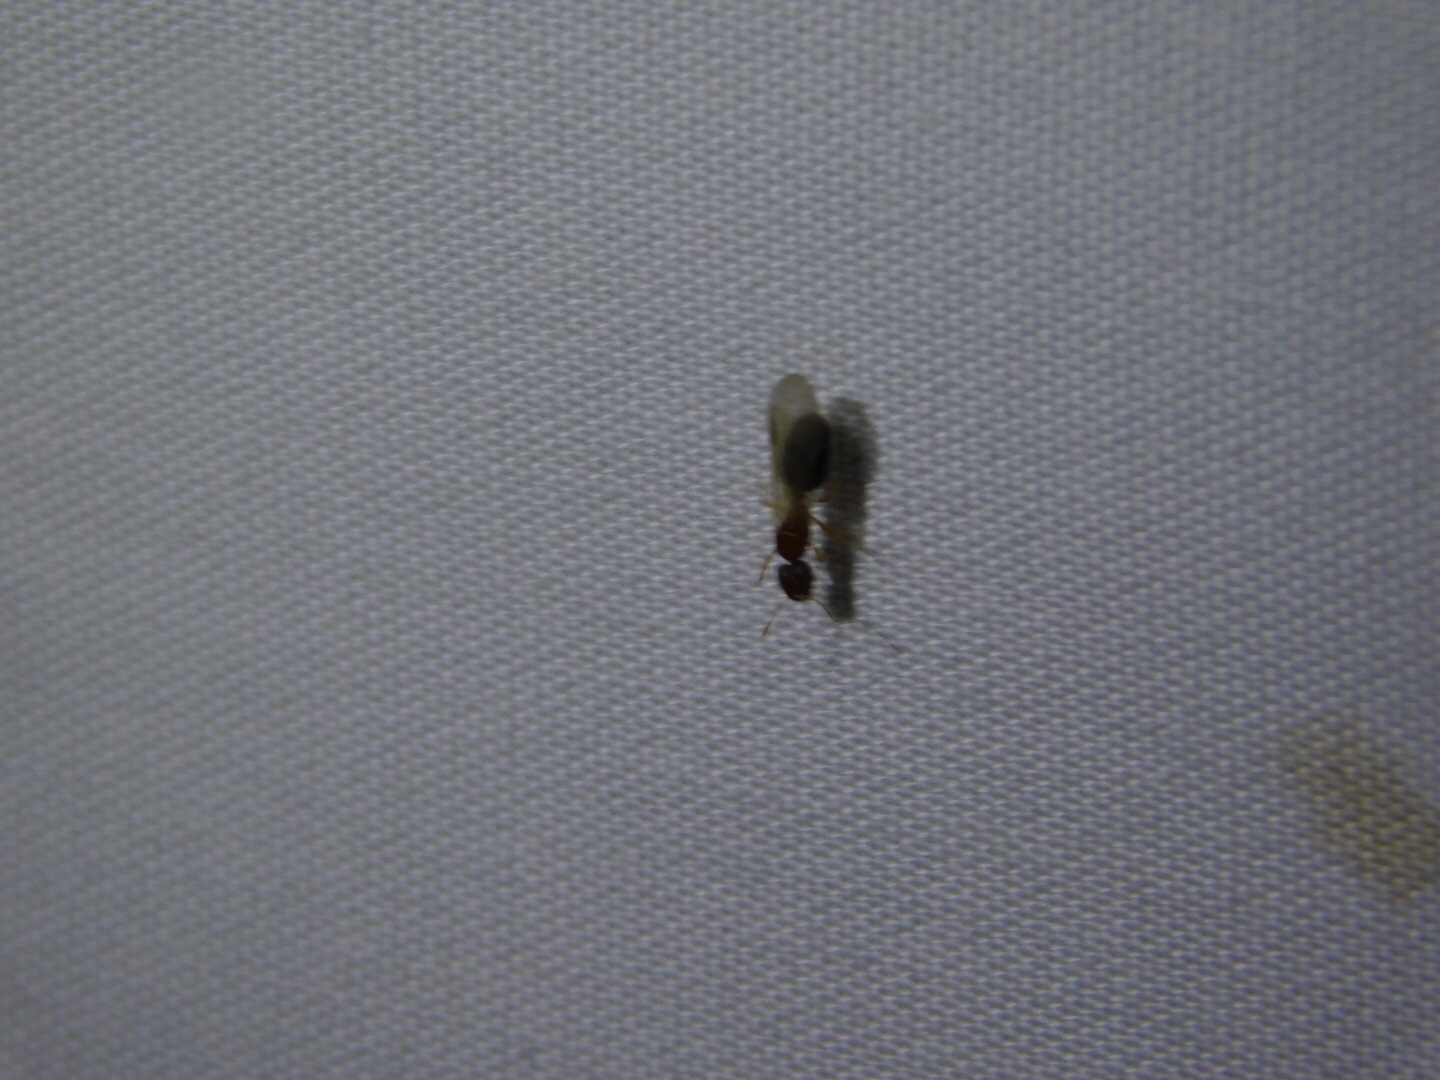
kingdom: Animalia
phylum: Arthropoda
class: Insecta
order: Hymenoptera
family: Formicidae
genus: Pheidole
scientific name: Pheidole parva
